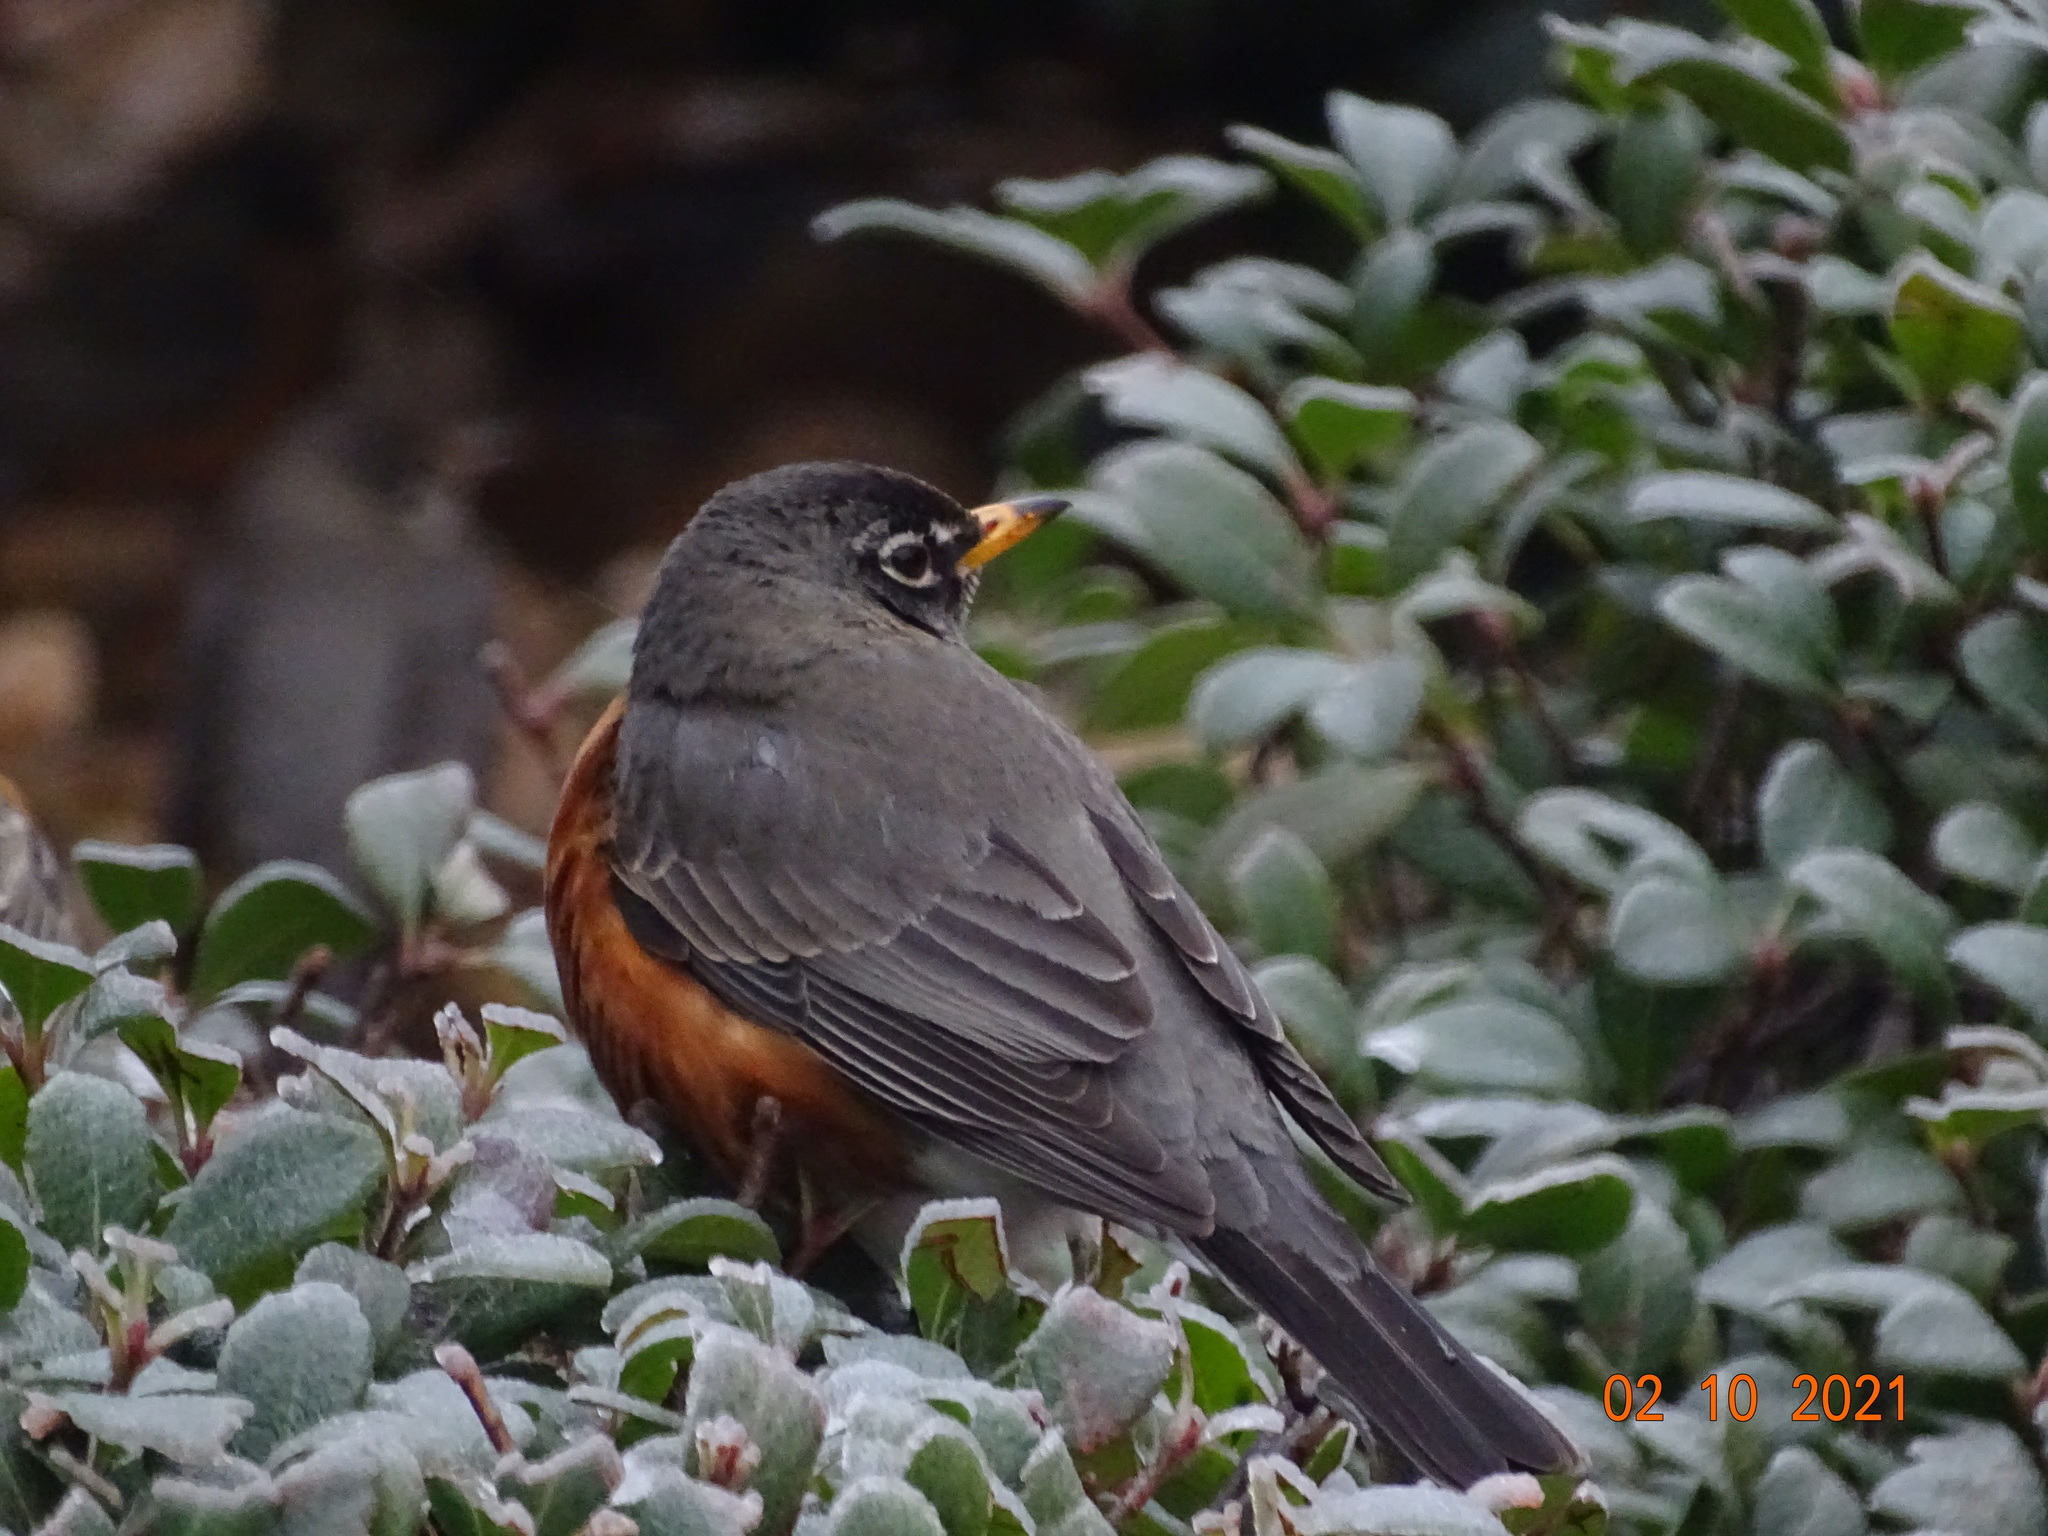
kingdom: Animalia
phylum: Chordata
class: Aves
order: Passeriformes
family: Turdidae
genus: Turdus
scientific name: Turdus migratorius
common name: American robin
